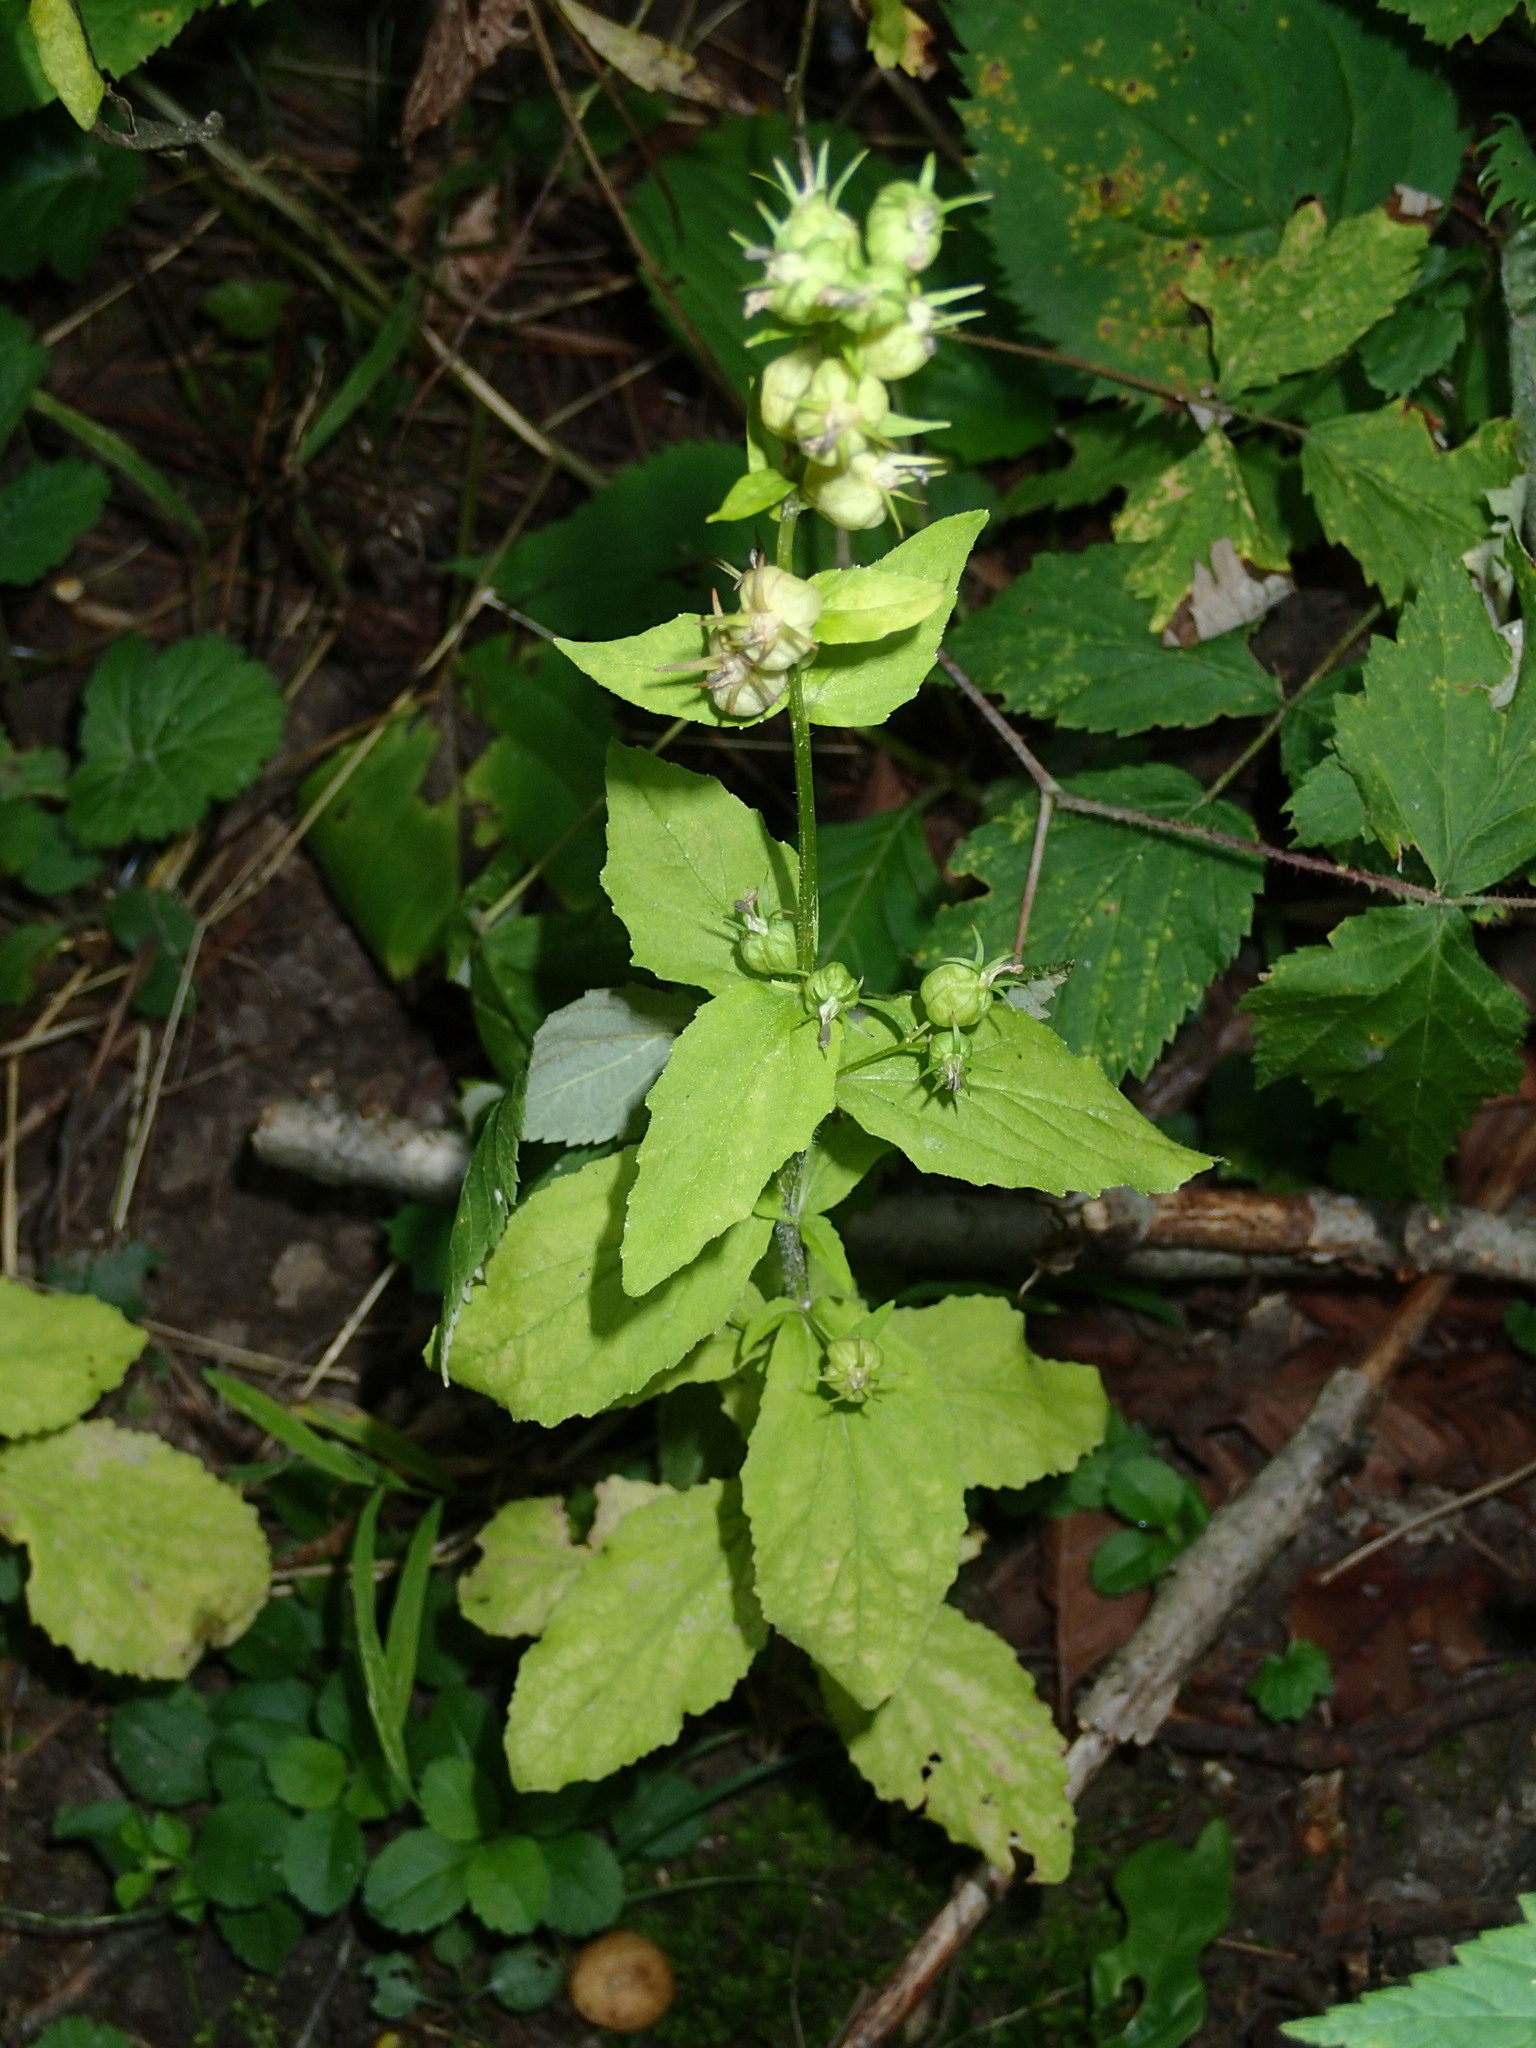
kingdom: Plantae
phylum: Tracheophyta
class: Magnoliopsida
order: Asterales
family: Campanulaceae
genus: Lobelia
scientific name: Lobelia inflata
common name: Indian tobacco
